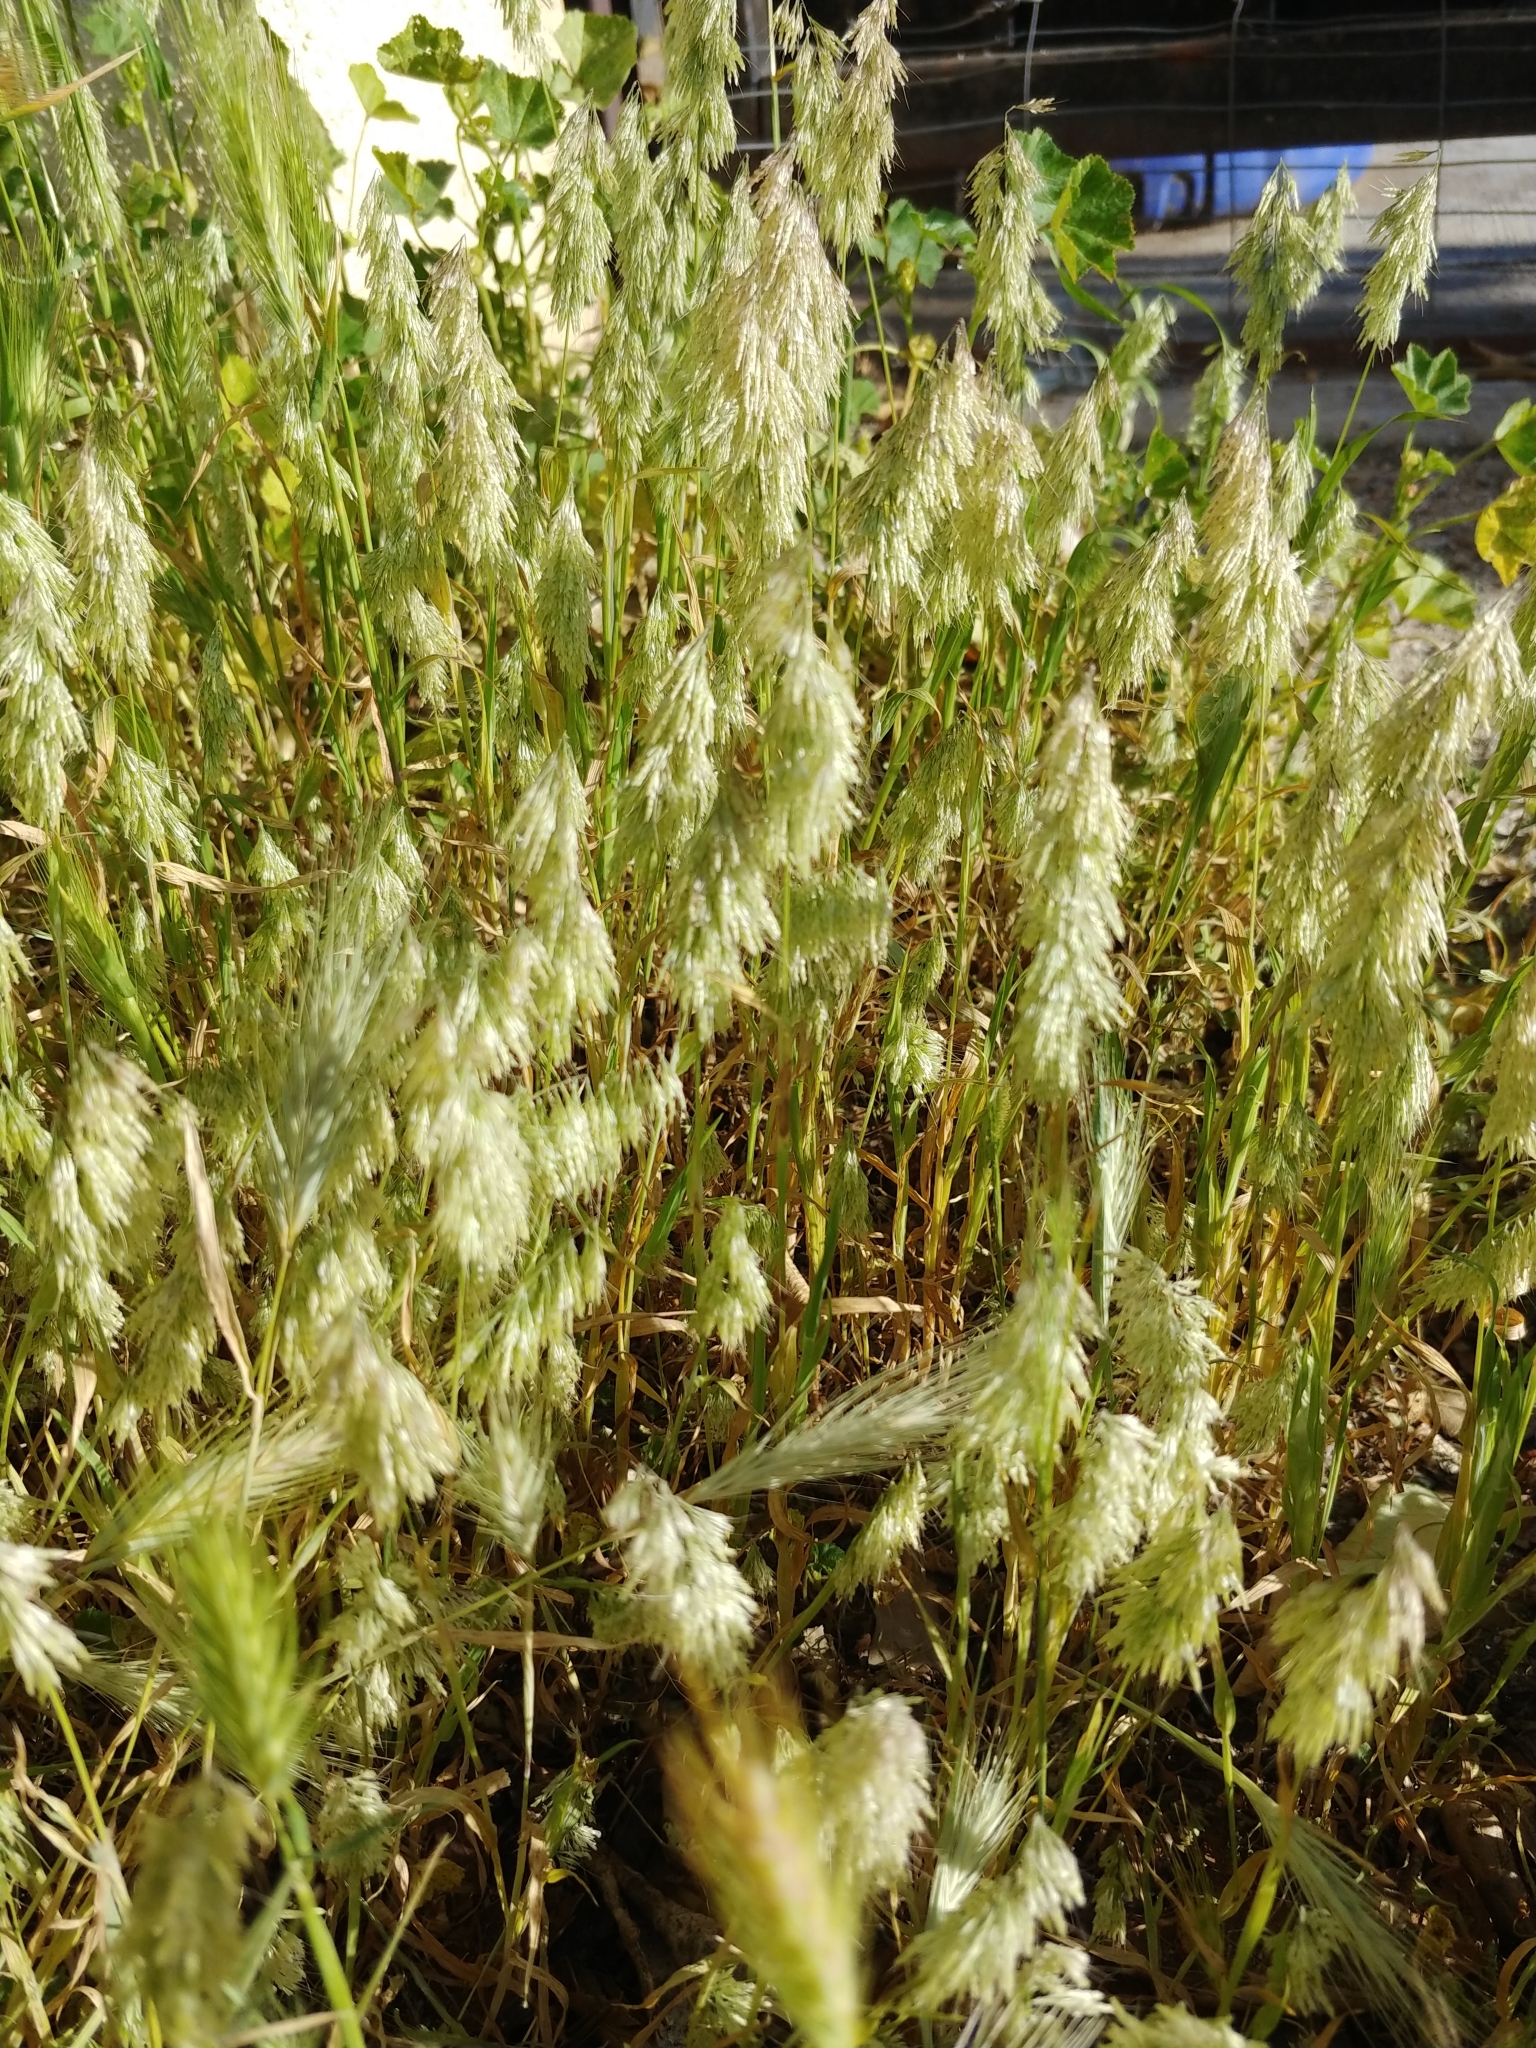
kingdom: Plantae
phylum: Tracheophyta
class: Liliopsida
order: Poales
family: Poaceae
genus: Lamarckia
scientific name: Lamarckia aurea
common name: Golden dog's-tail
